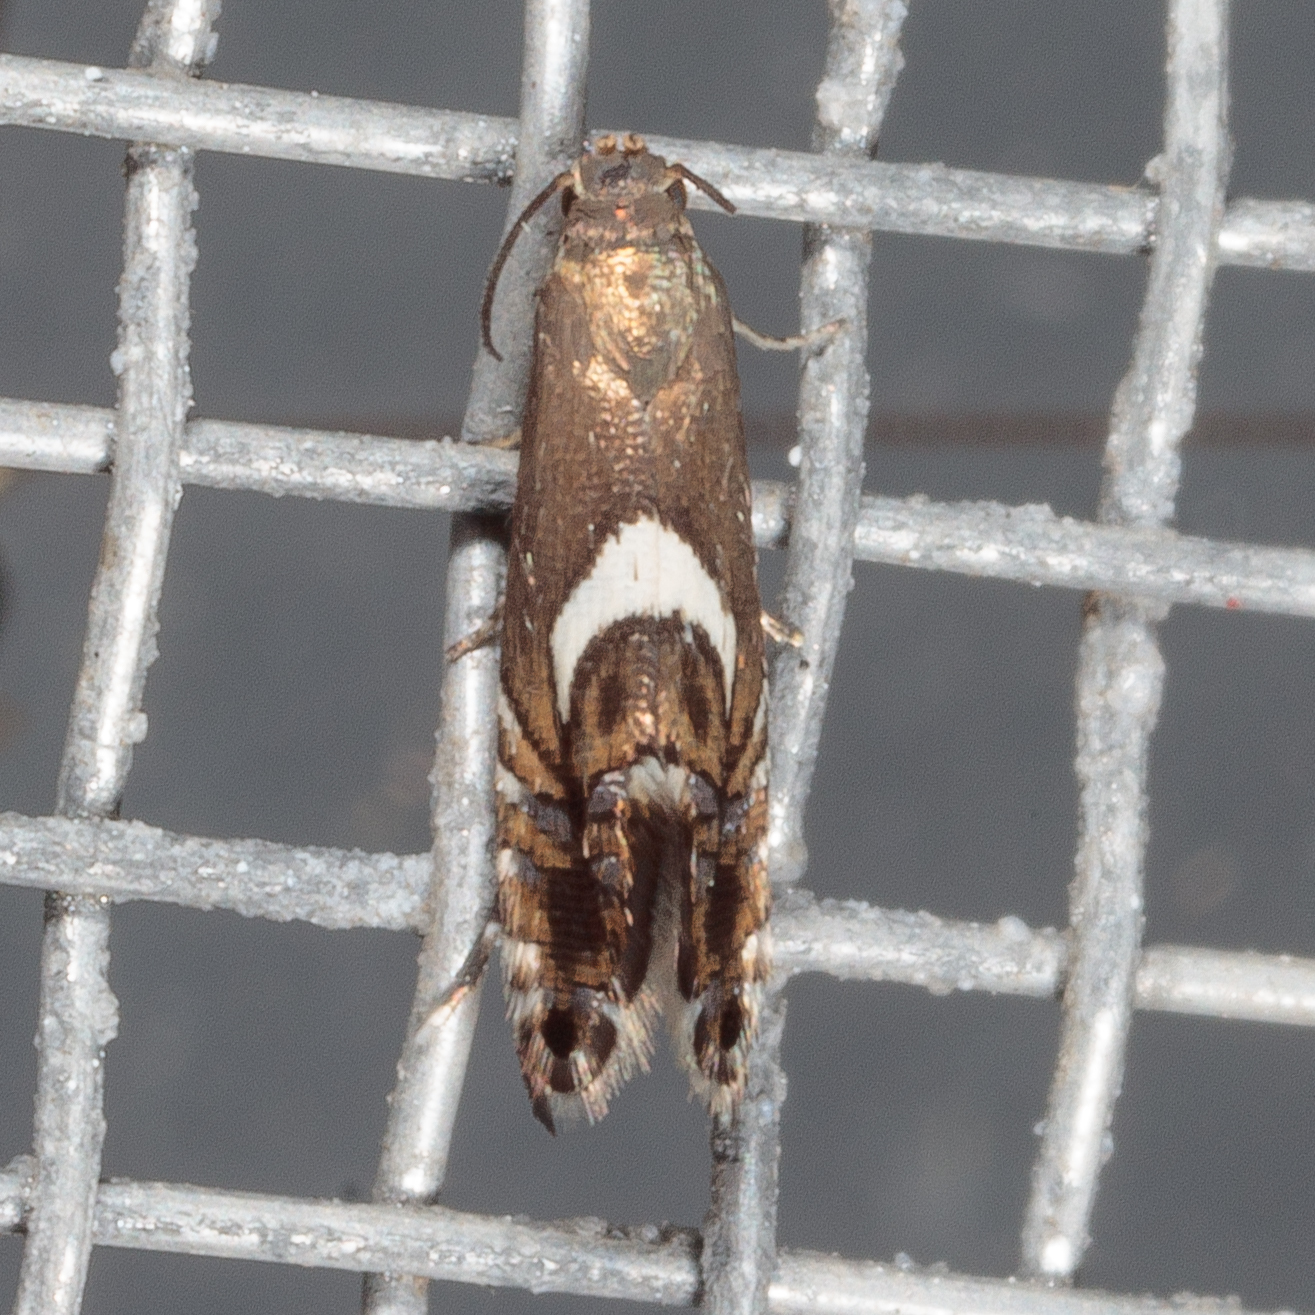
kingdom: Animalia
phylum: Arthropoda
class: Insecta
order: Lepidoptera
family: Glyphipterigidae
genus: Glyphipterix
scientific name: Glyphipterix Diploschizia impigritella
